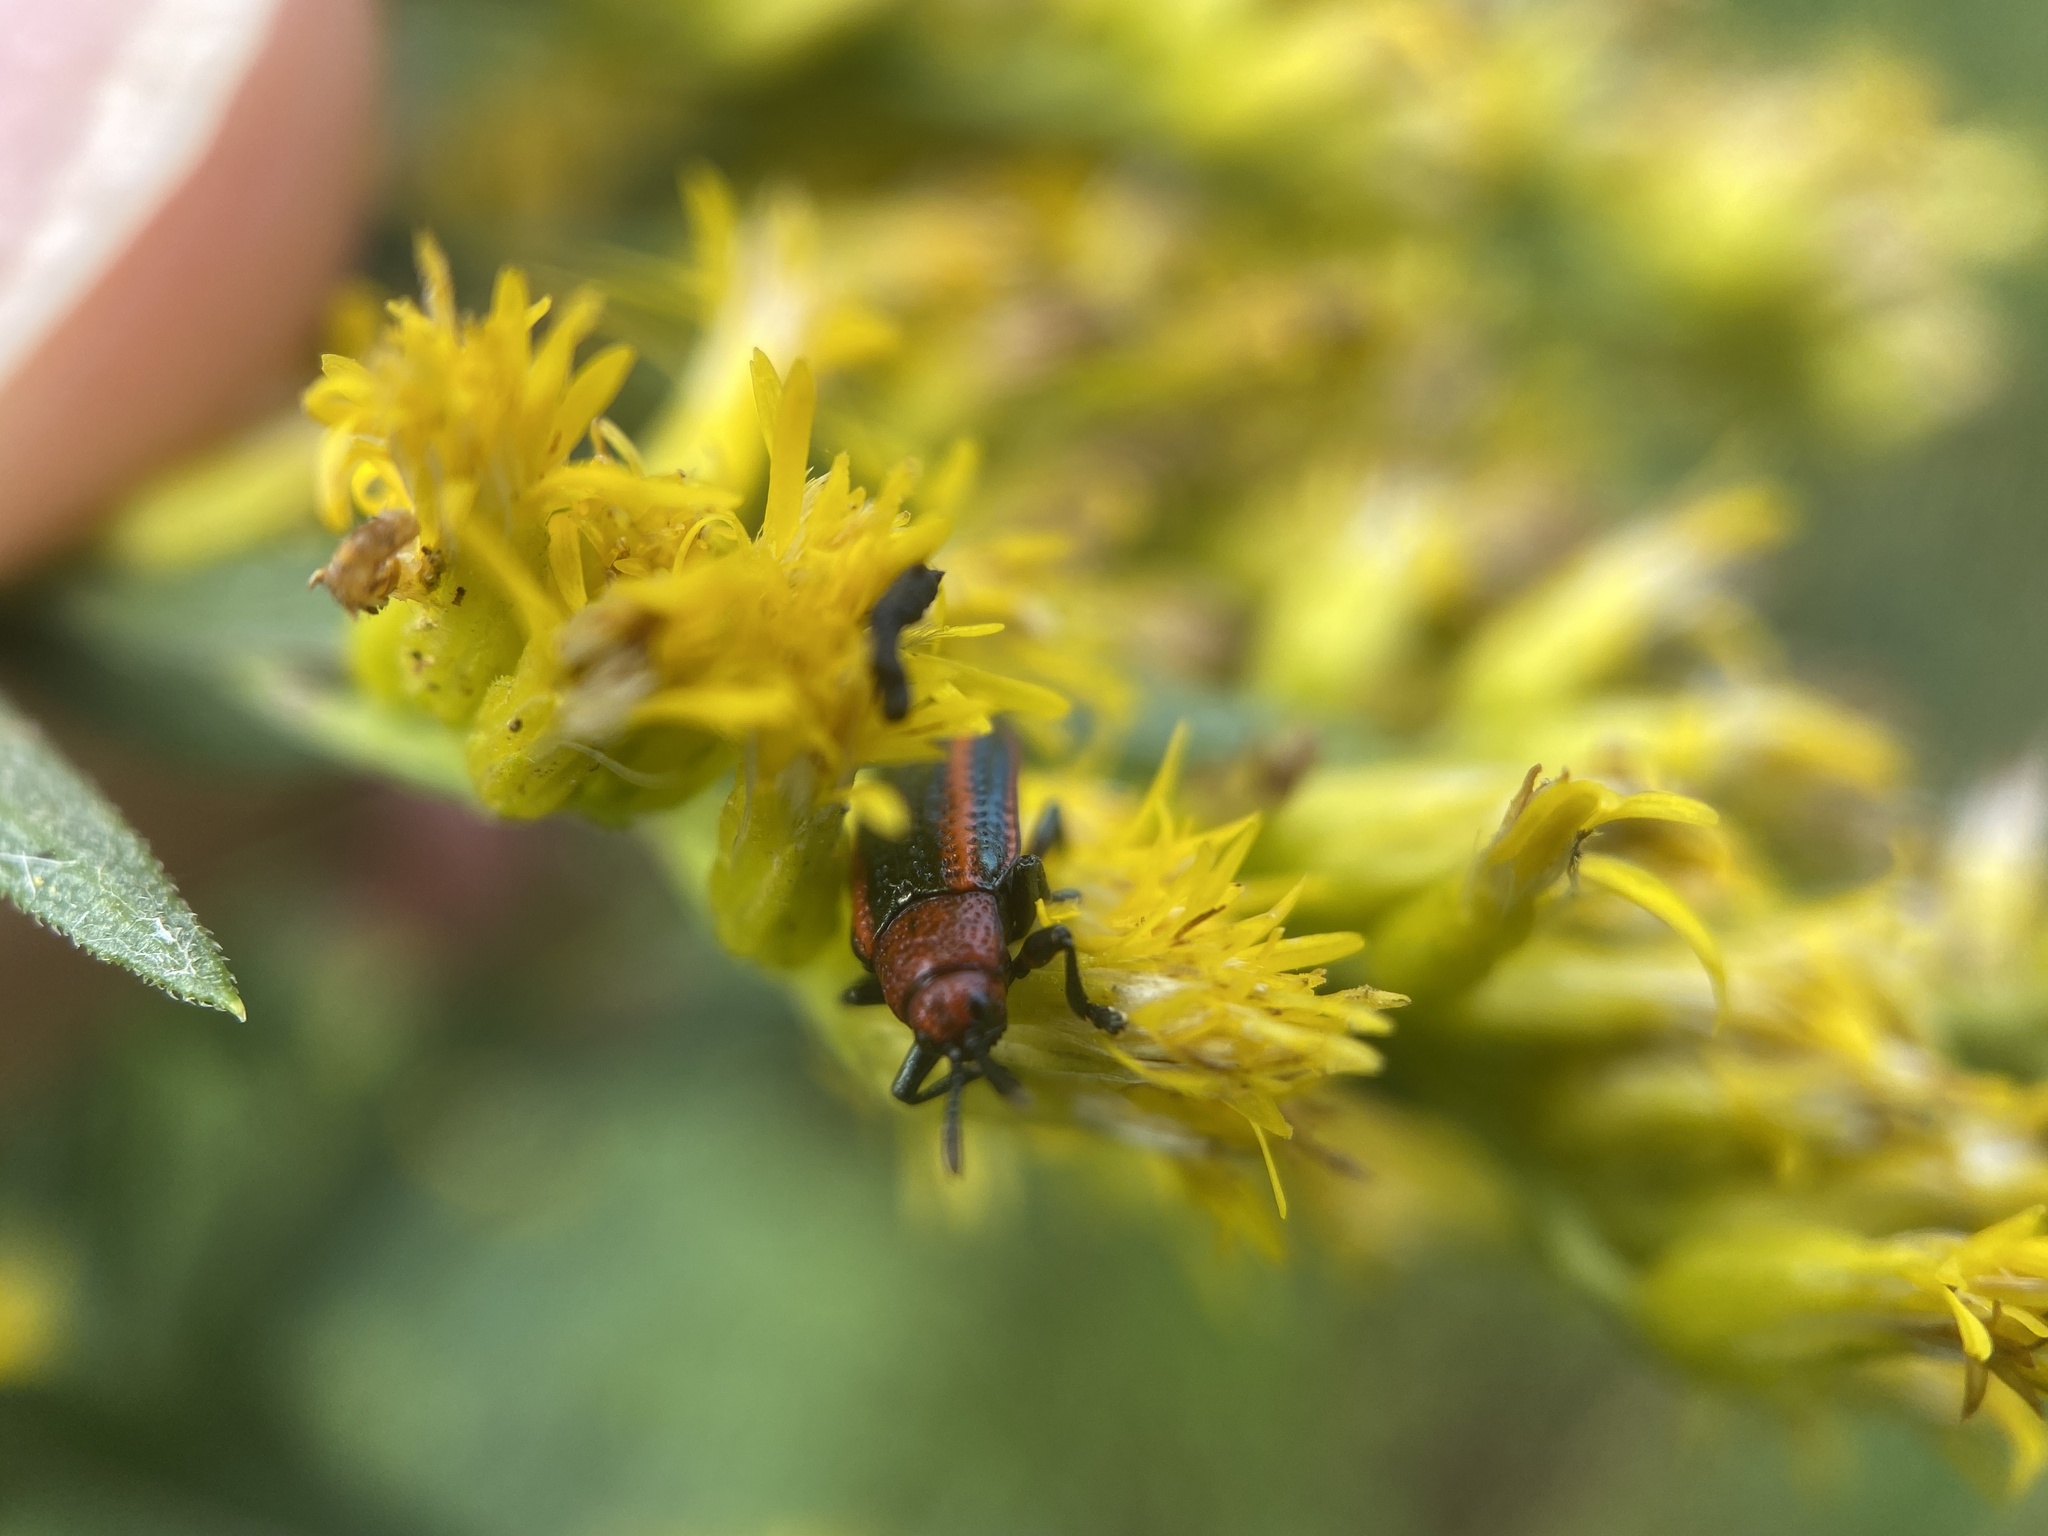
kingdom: Animalia
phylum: Arthropoda
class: Insecta
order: Coleoptera
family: Chrysomelidae
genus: Microrhopala
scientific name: Microrhopala vittata
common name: Goldenrod leaf miner beetle
